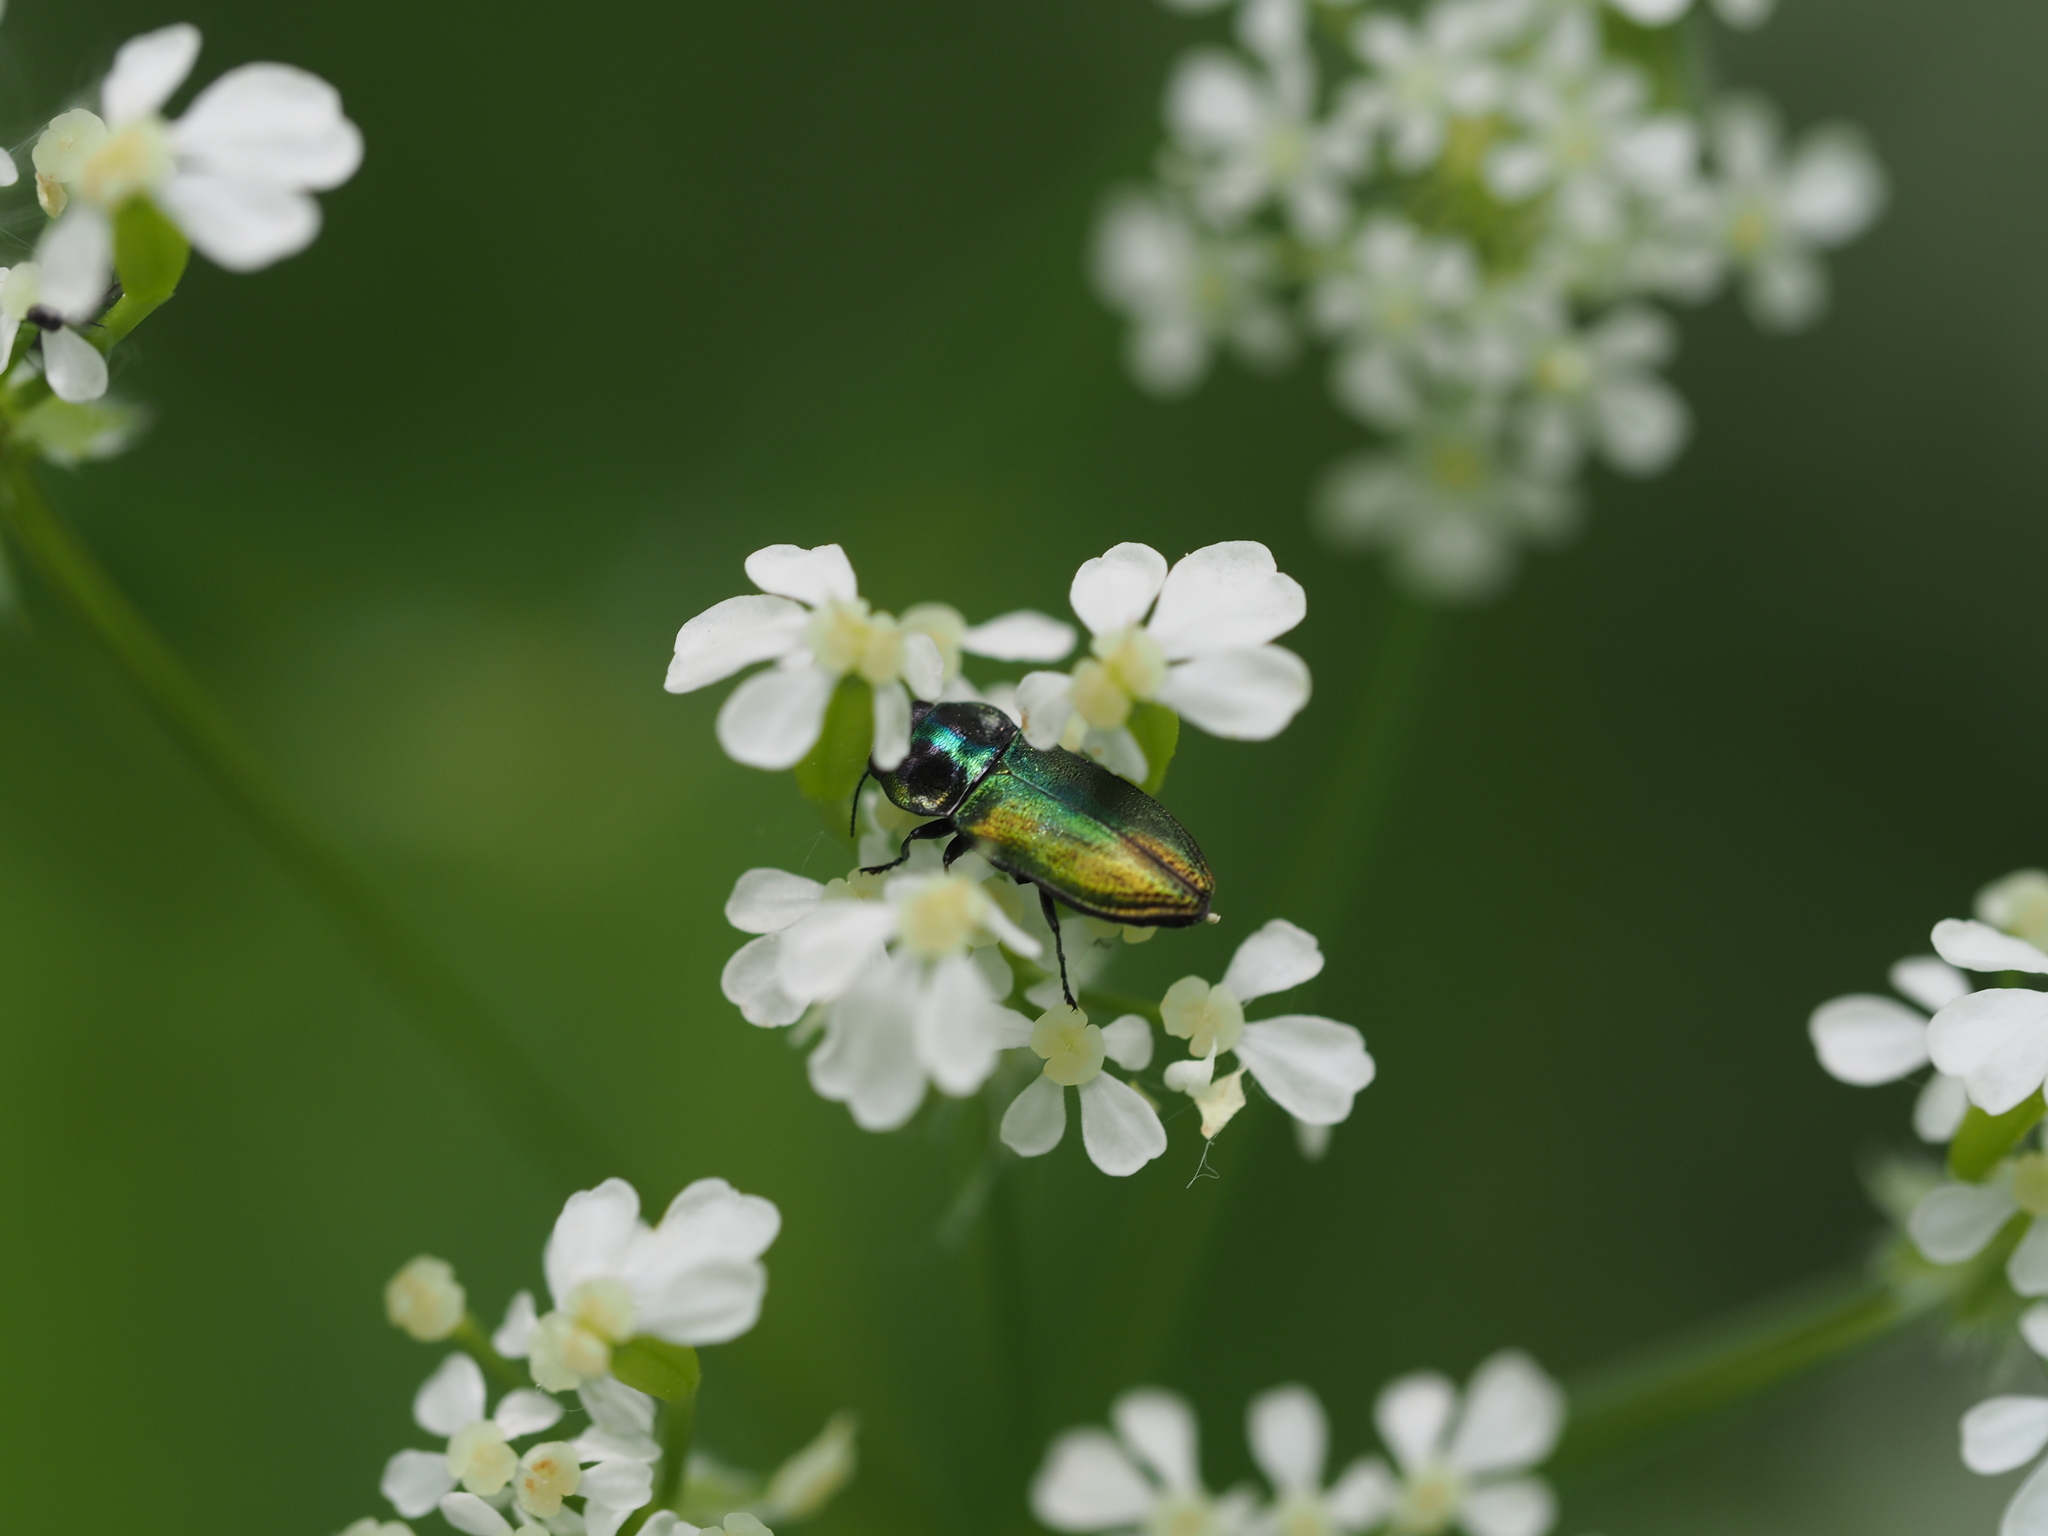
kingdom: Animalia
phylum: Arthropoda
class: Insecta
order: Coleoptera
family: Buprestidae
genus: Anthaxia
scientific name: Anthaxia fulgurans
